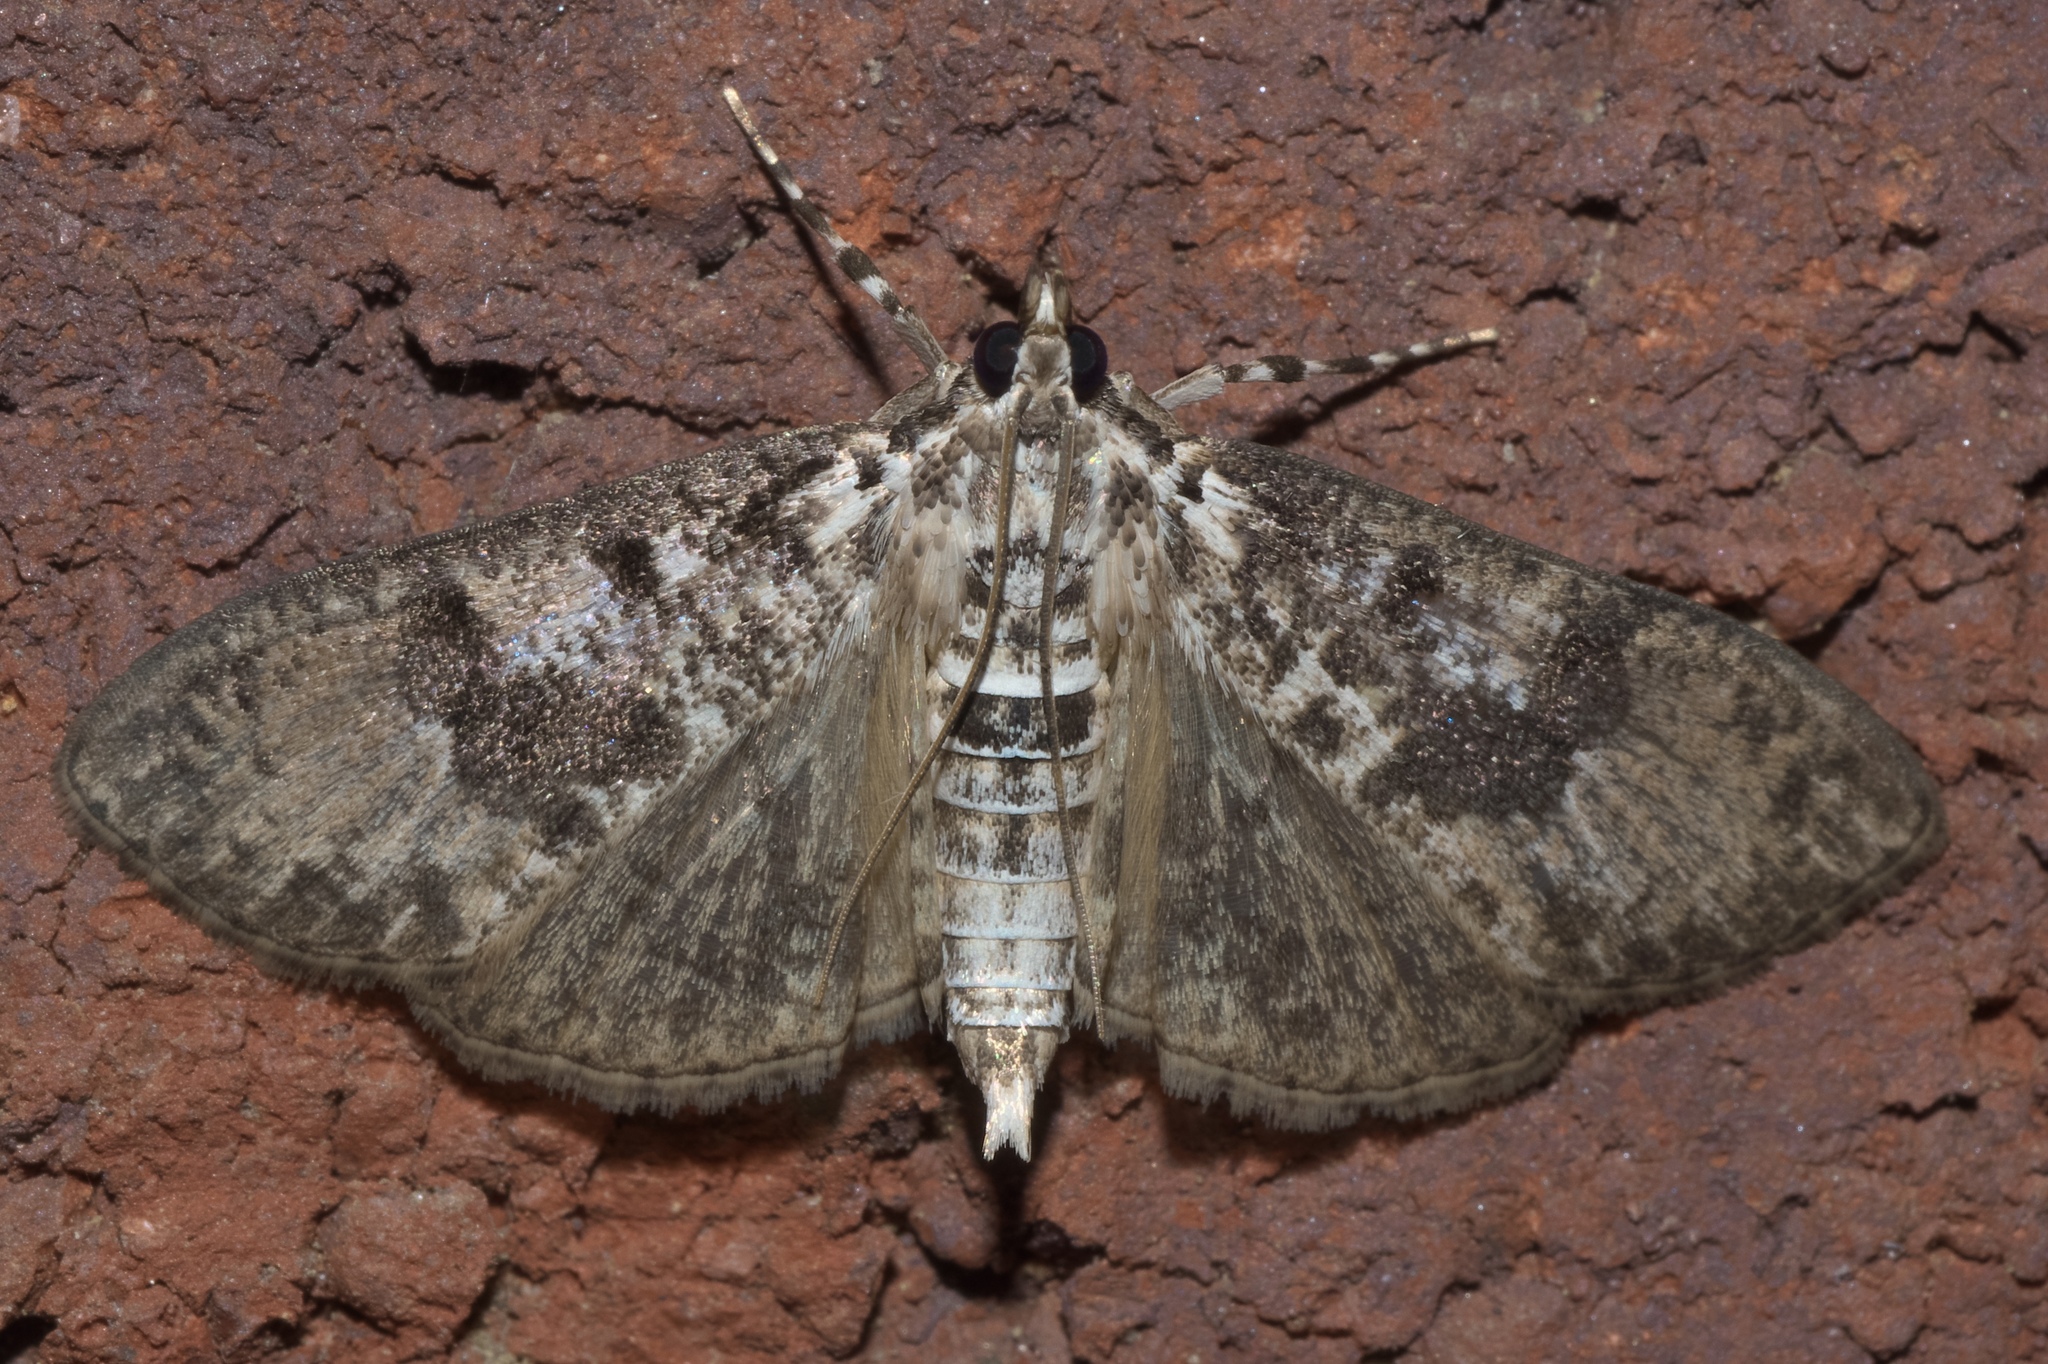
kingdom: Animalia
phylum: Arthropoda
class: Insecta
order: Lepidoptera
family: Crambidae
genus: Palpita
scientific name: Palpita magniferalis
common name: Splendid palpita moth
